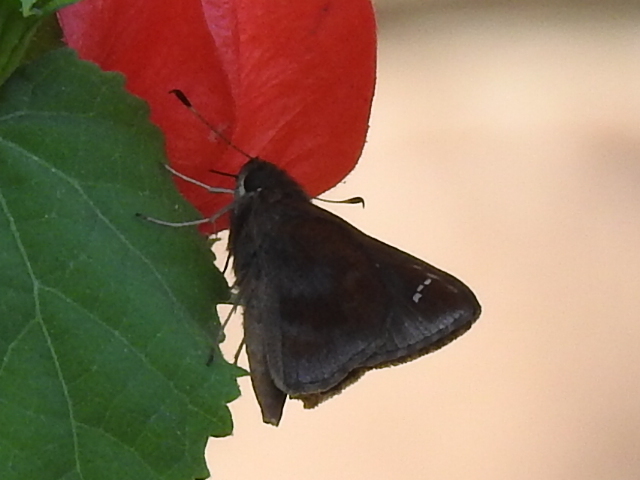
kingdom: Animalia
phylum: Arthropoda
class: Insecta
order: Lepidoptera
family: Hesperiidae
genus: Lerema
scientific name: Lerema accius
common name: Clouded skipper
